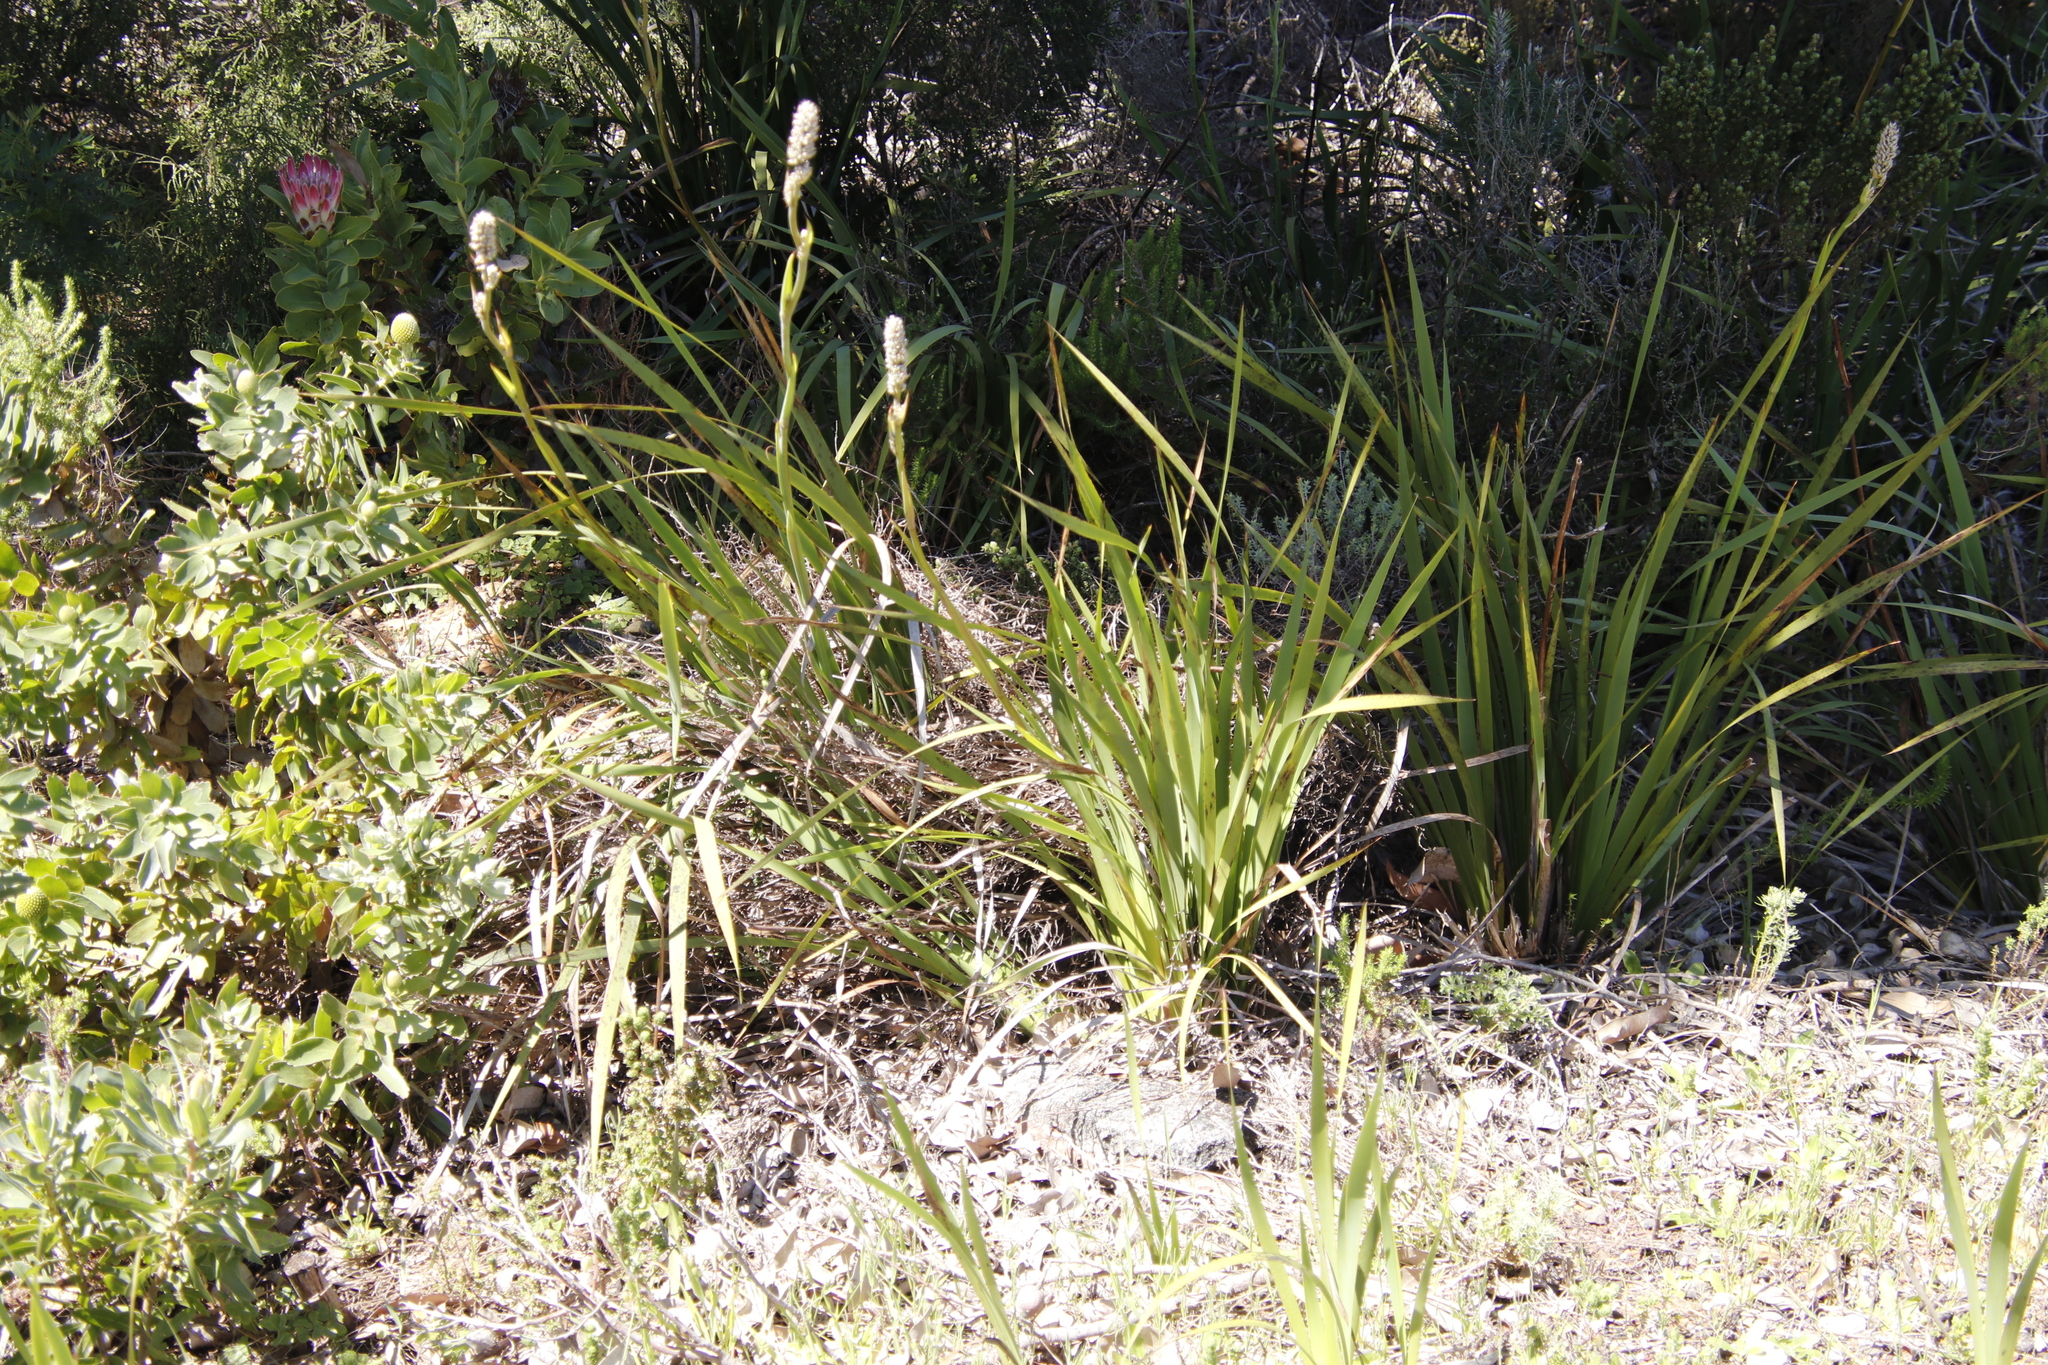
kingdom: Plantae
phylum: Tracheophyta
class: Liliopsida
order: Asparagales
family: Iridaceae
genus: Aristea
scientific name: Aristea capitata
